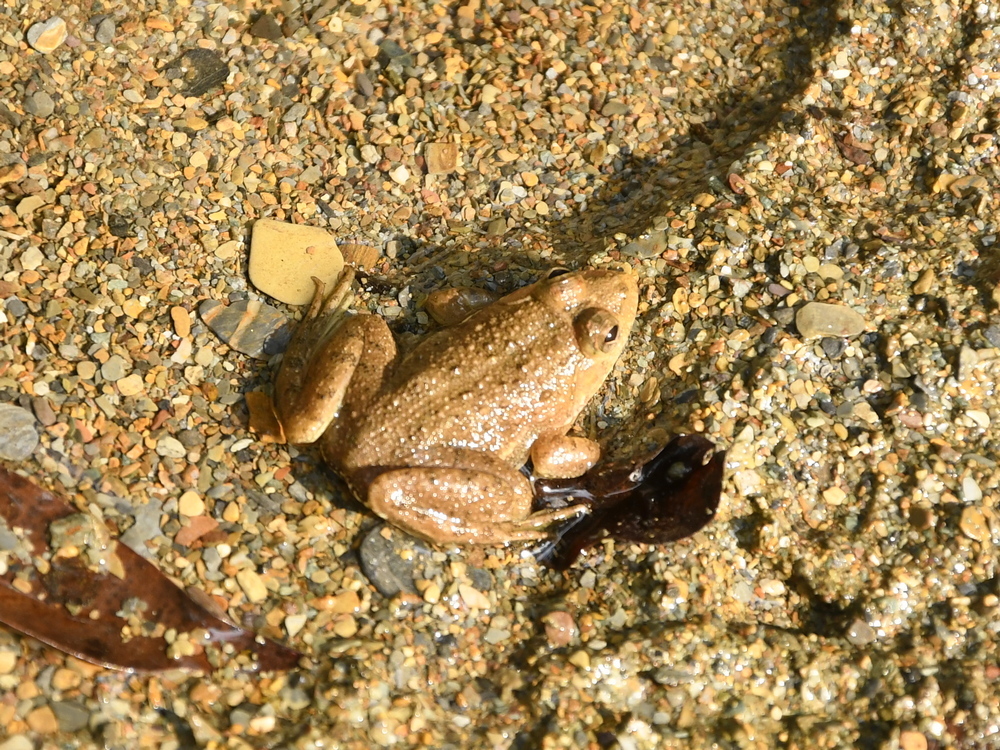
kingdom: Animalia
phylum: Chordata
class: Amphibia
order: Anura
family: Dicroglossidae
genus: Euphlyctis
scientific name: Euphlyctis cyanophlyctis
